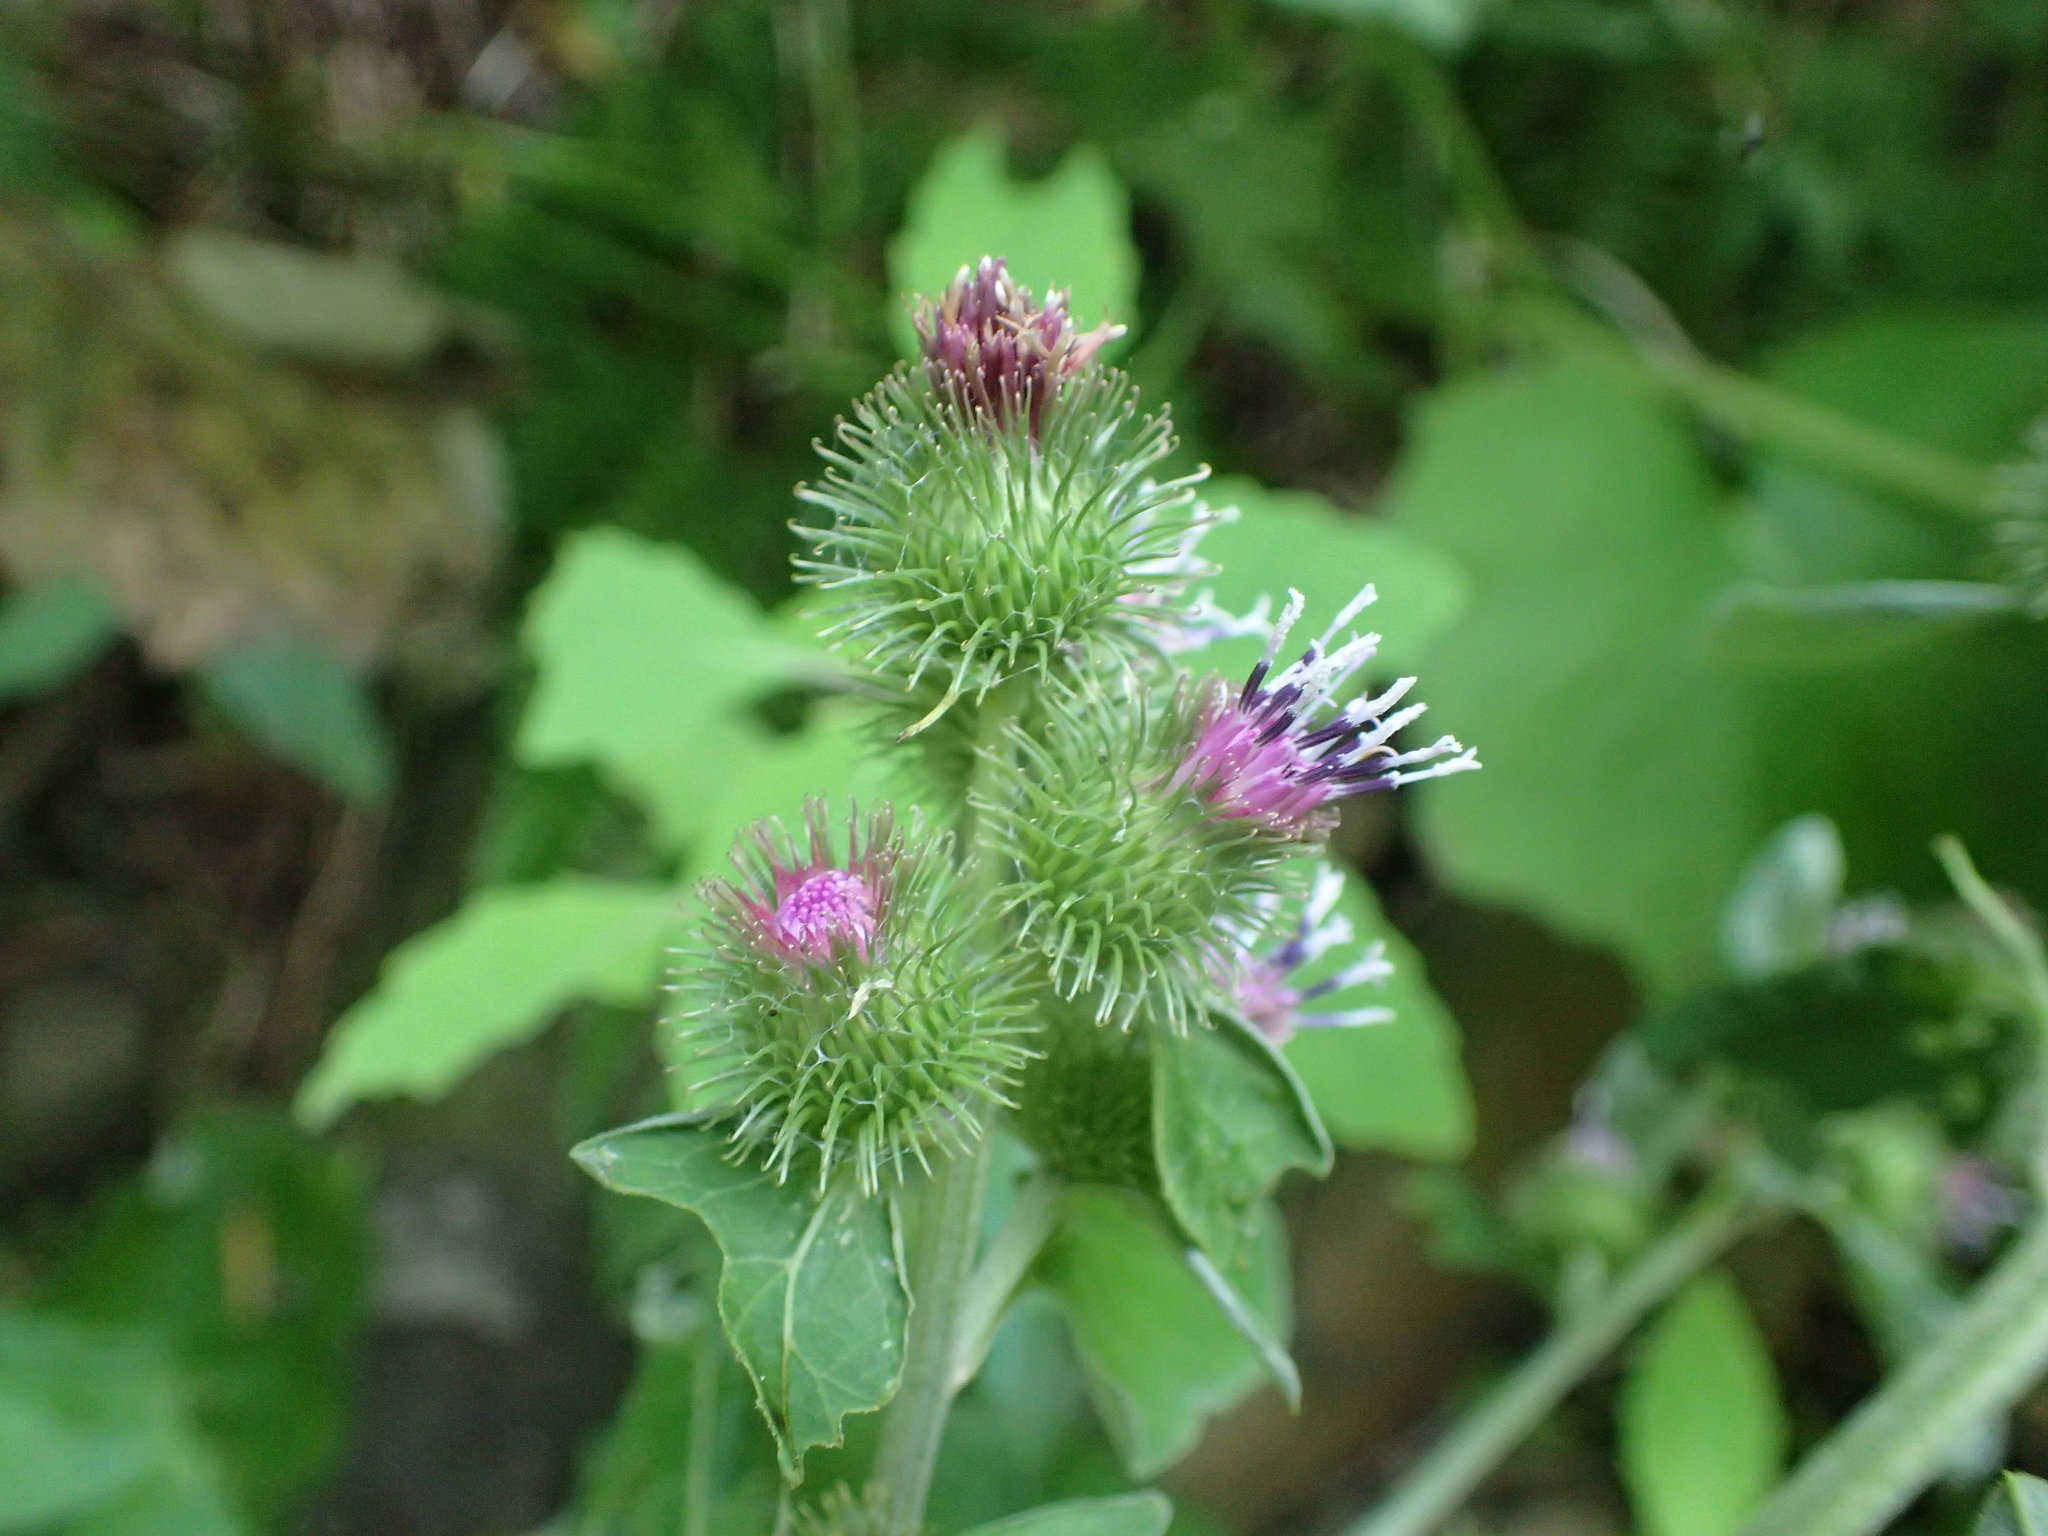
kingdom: Plantae
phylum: Tracheophyta
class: Magnoliopsida
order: Asterales
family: Asteraceae
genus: Arctium
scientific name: Arctium minus
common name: Lesser burdock
